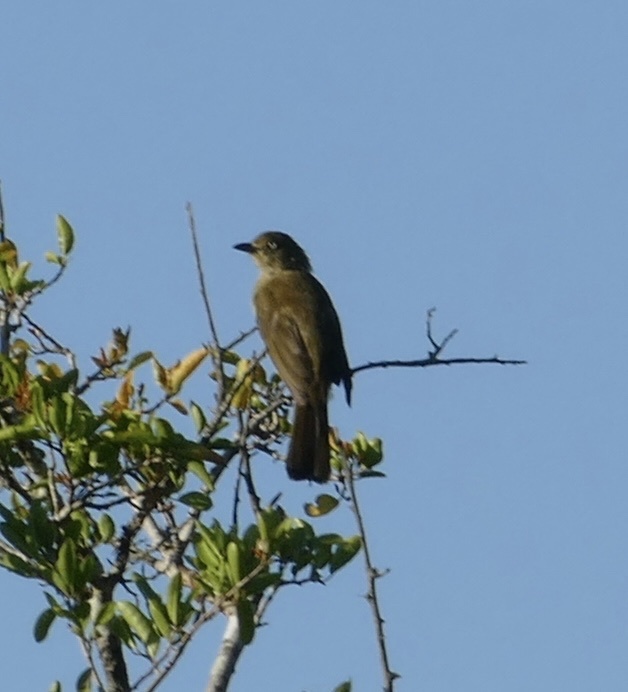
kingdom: Animalia
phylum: Chordata
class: Aves
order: Passeriformes
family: Pycnonotidae
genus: Andropadus
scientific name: Andropadus importunus
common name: Sombre greenbul
